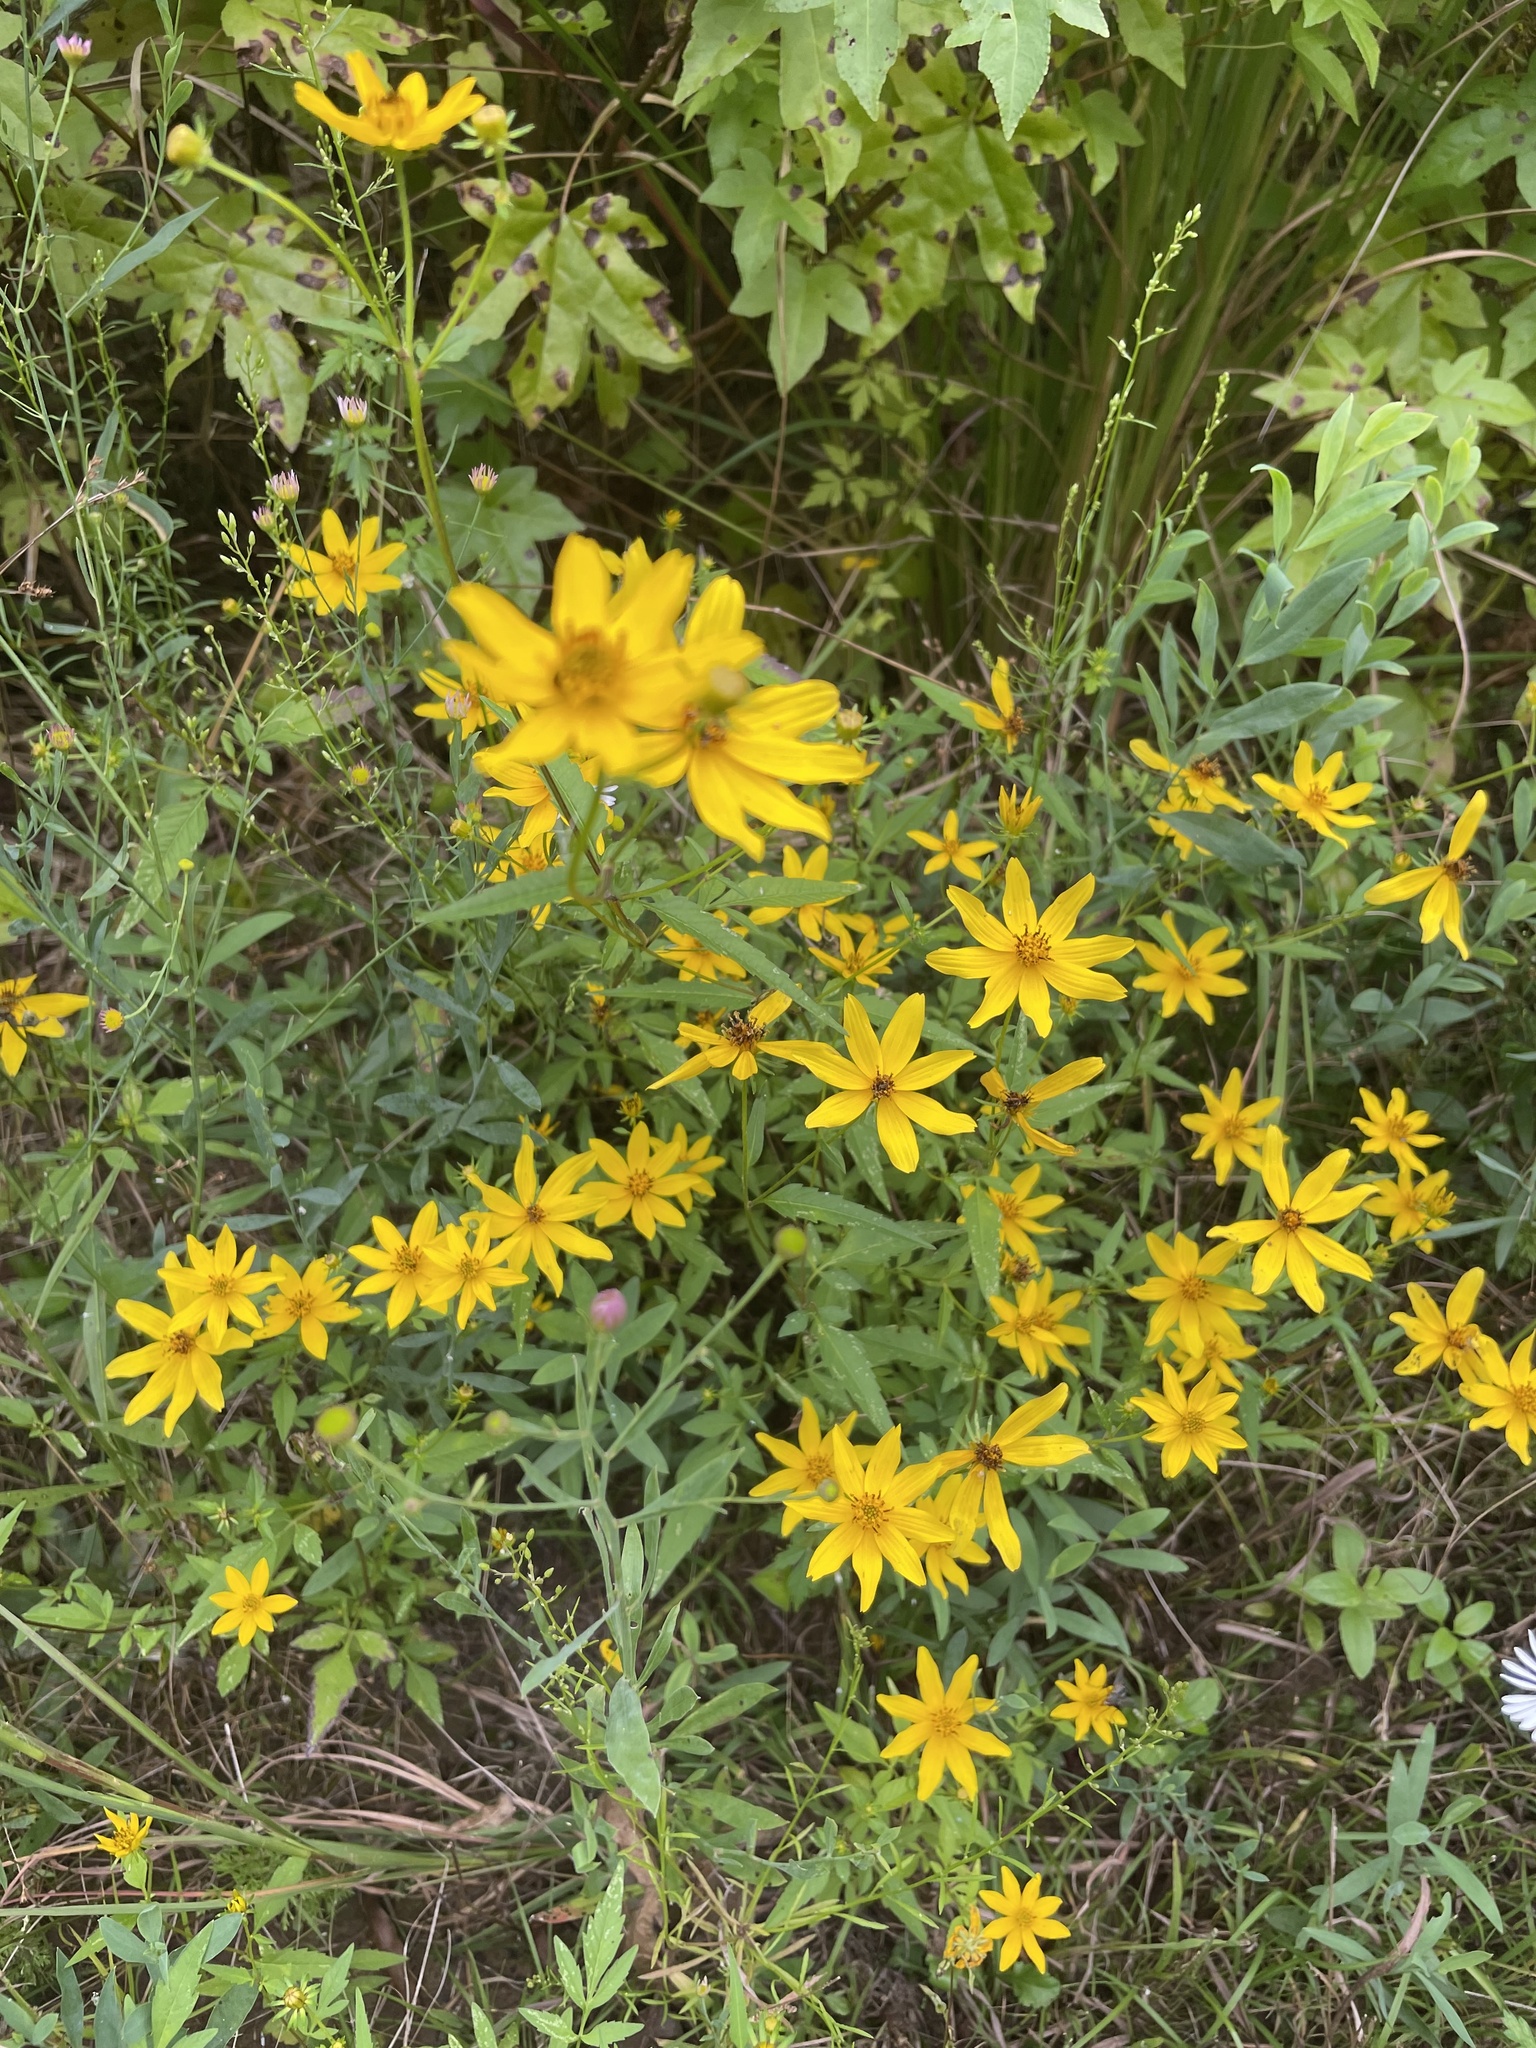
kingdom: Plantae
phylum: Tracheophyta
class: Magnoliopsida
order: Asterales
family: Asteraceae
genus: Bidens
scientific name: Bidens polylepis
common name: Awnless beggarticks
